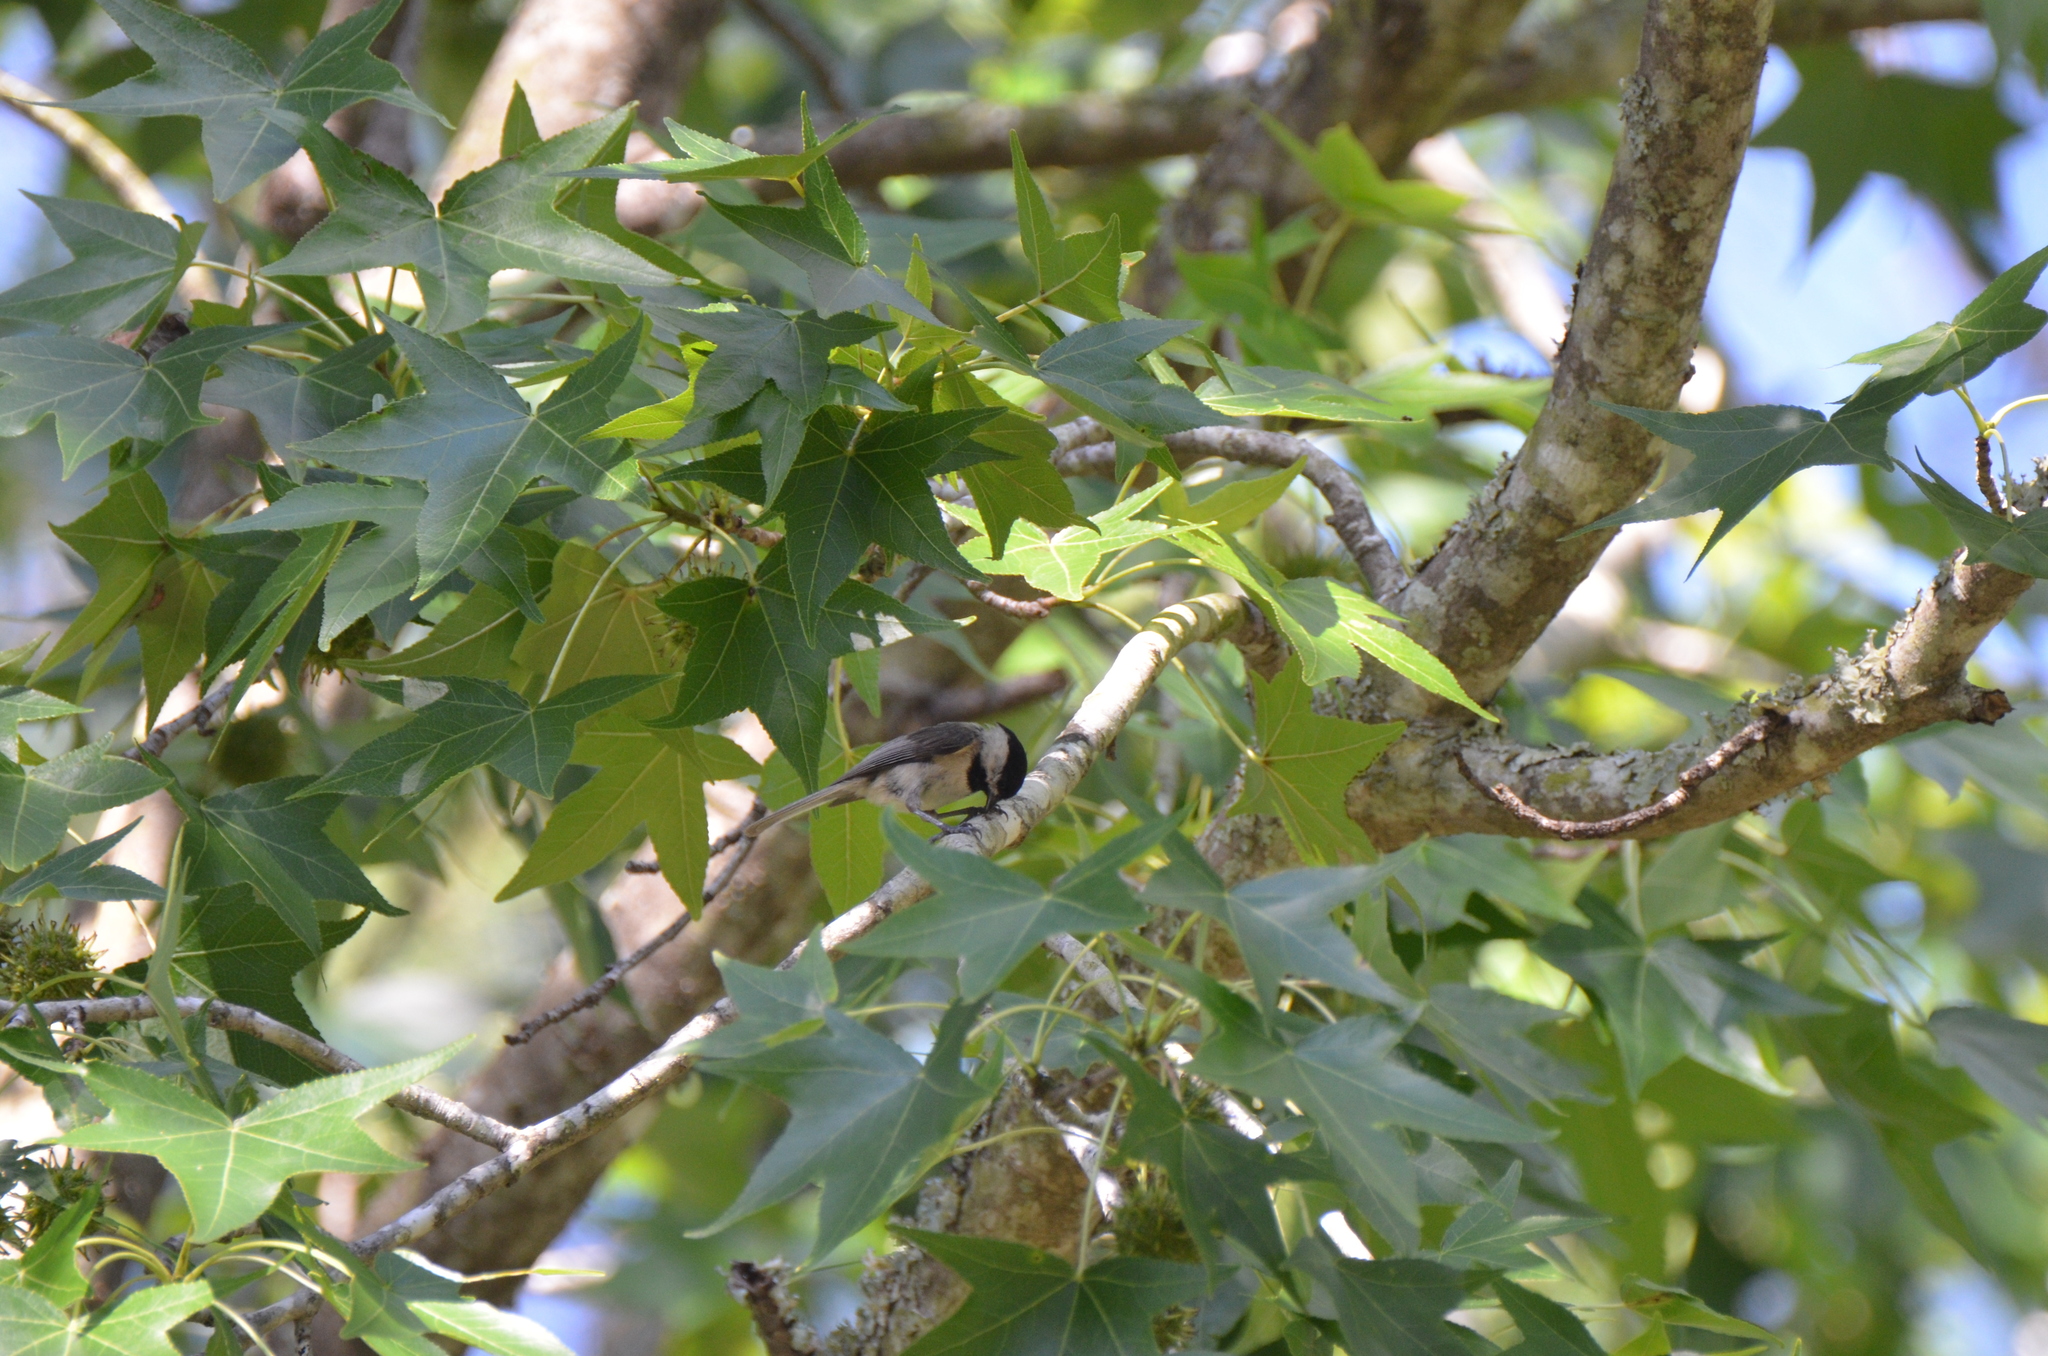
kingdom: Animalia
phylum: Chordata
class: Aves
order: Passeriformes
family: Paridae
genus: Poecile
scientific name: Poecile carolinensis
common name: Carolina chickadee
